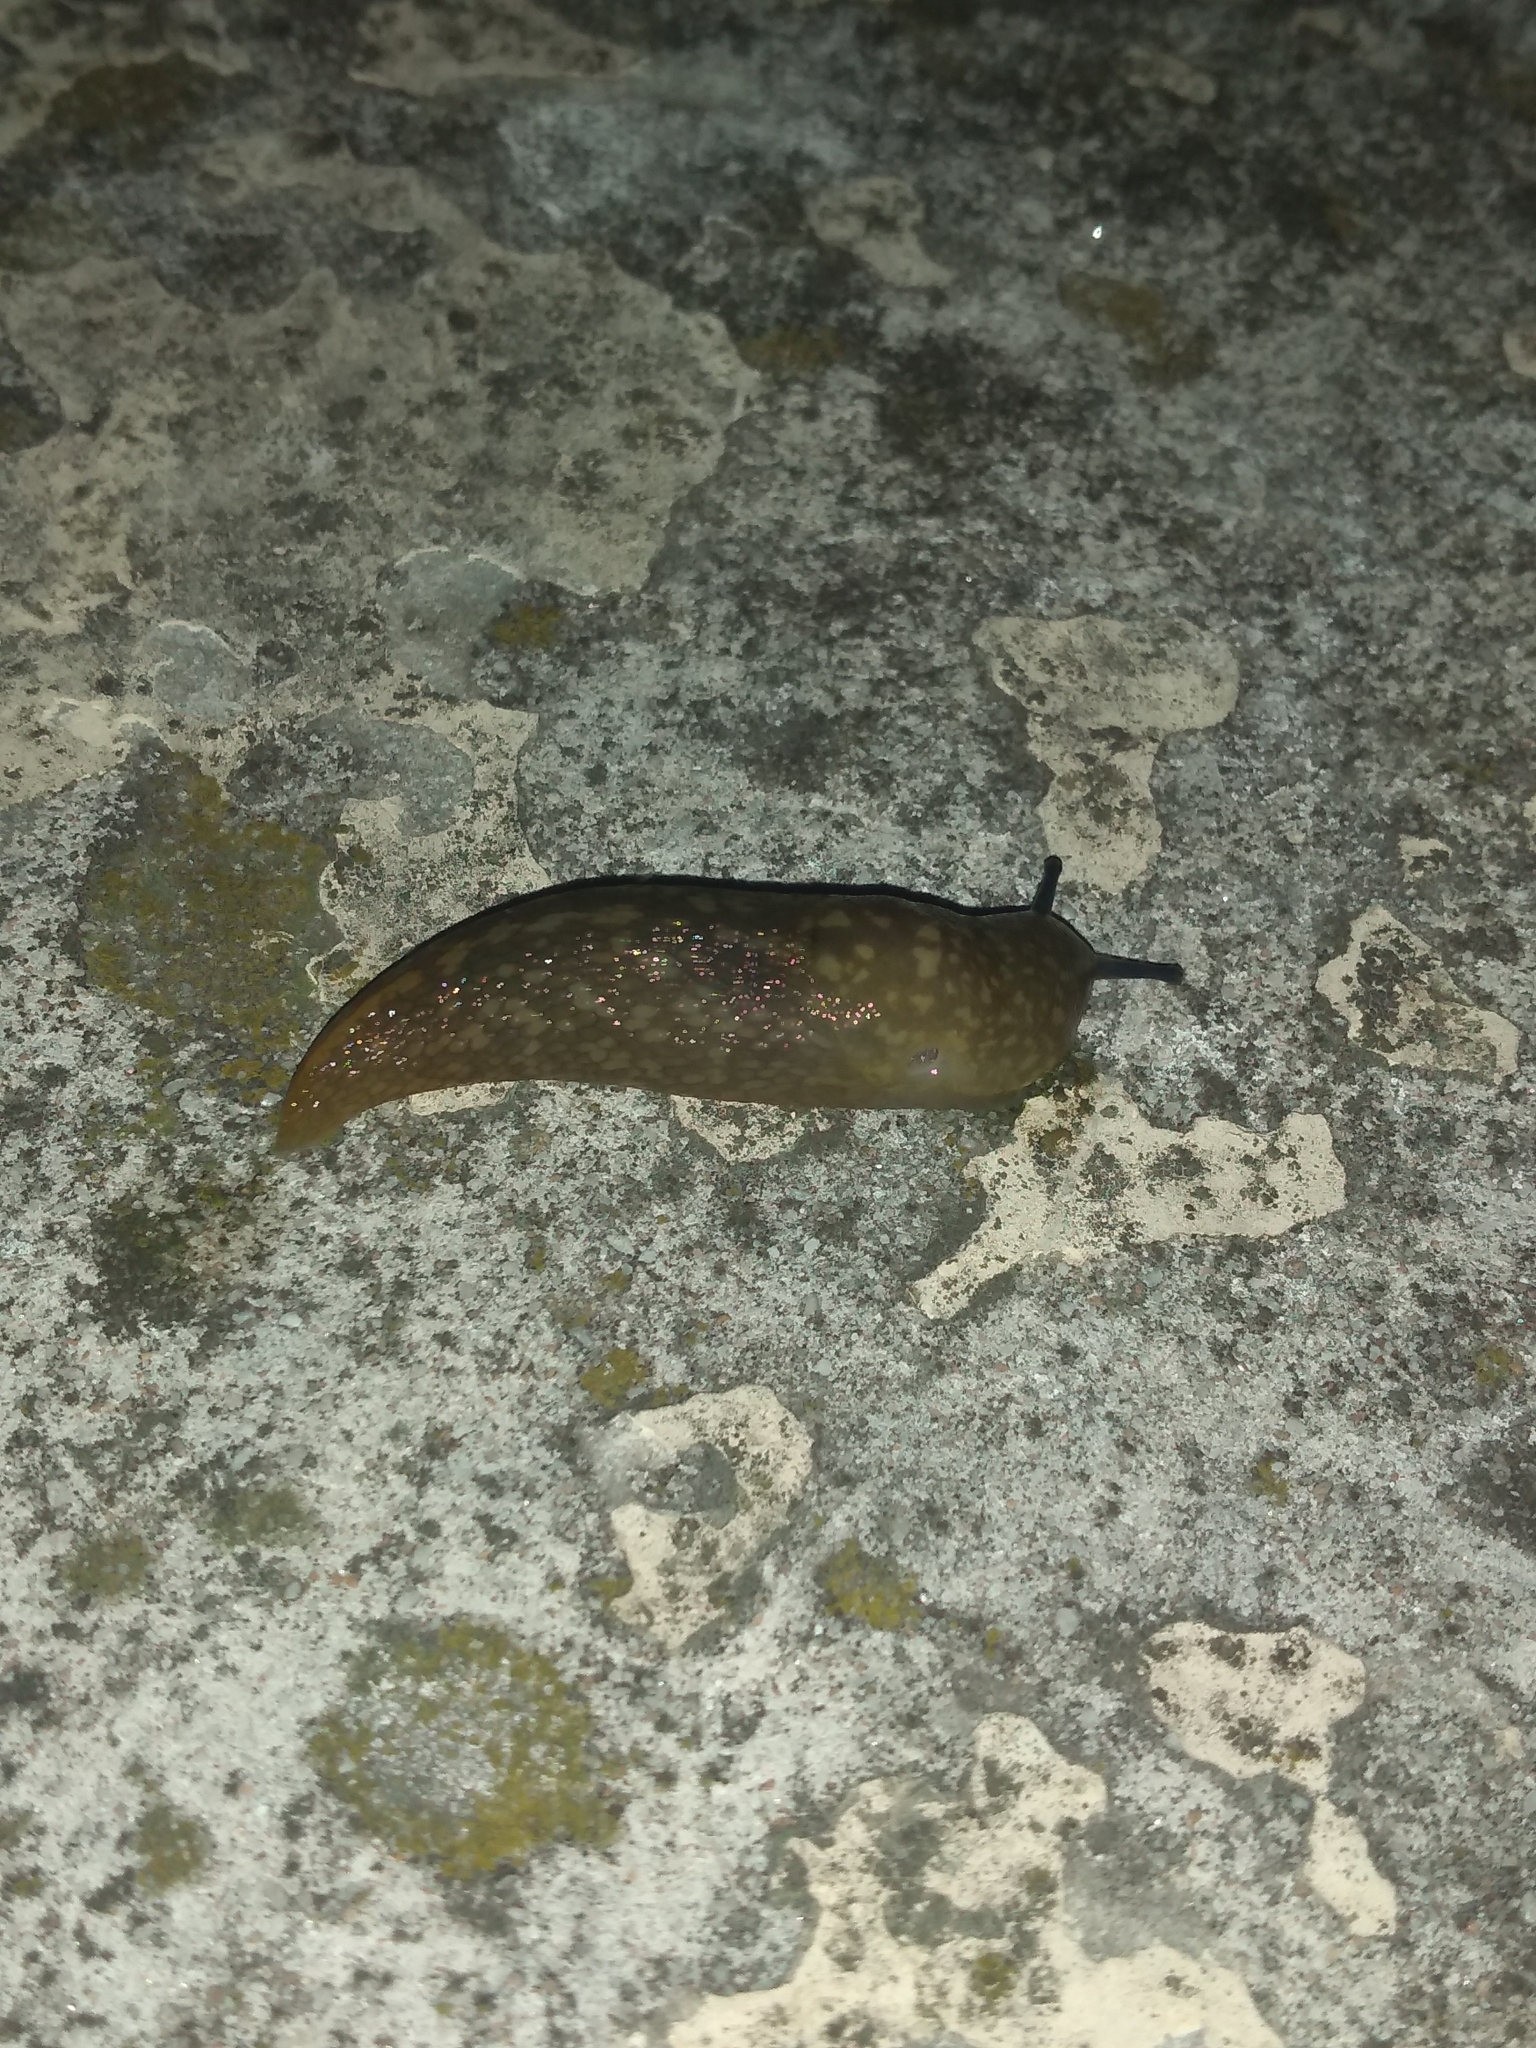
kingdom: Animalia
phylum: Mollusca
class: Gastropoda
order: Stylommatophora
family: Limacidae
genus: Limacus
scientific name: Limacus flavus
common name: Yellow gardenslug
